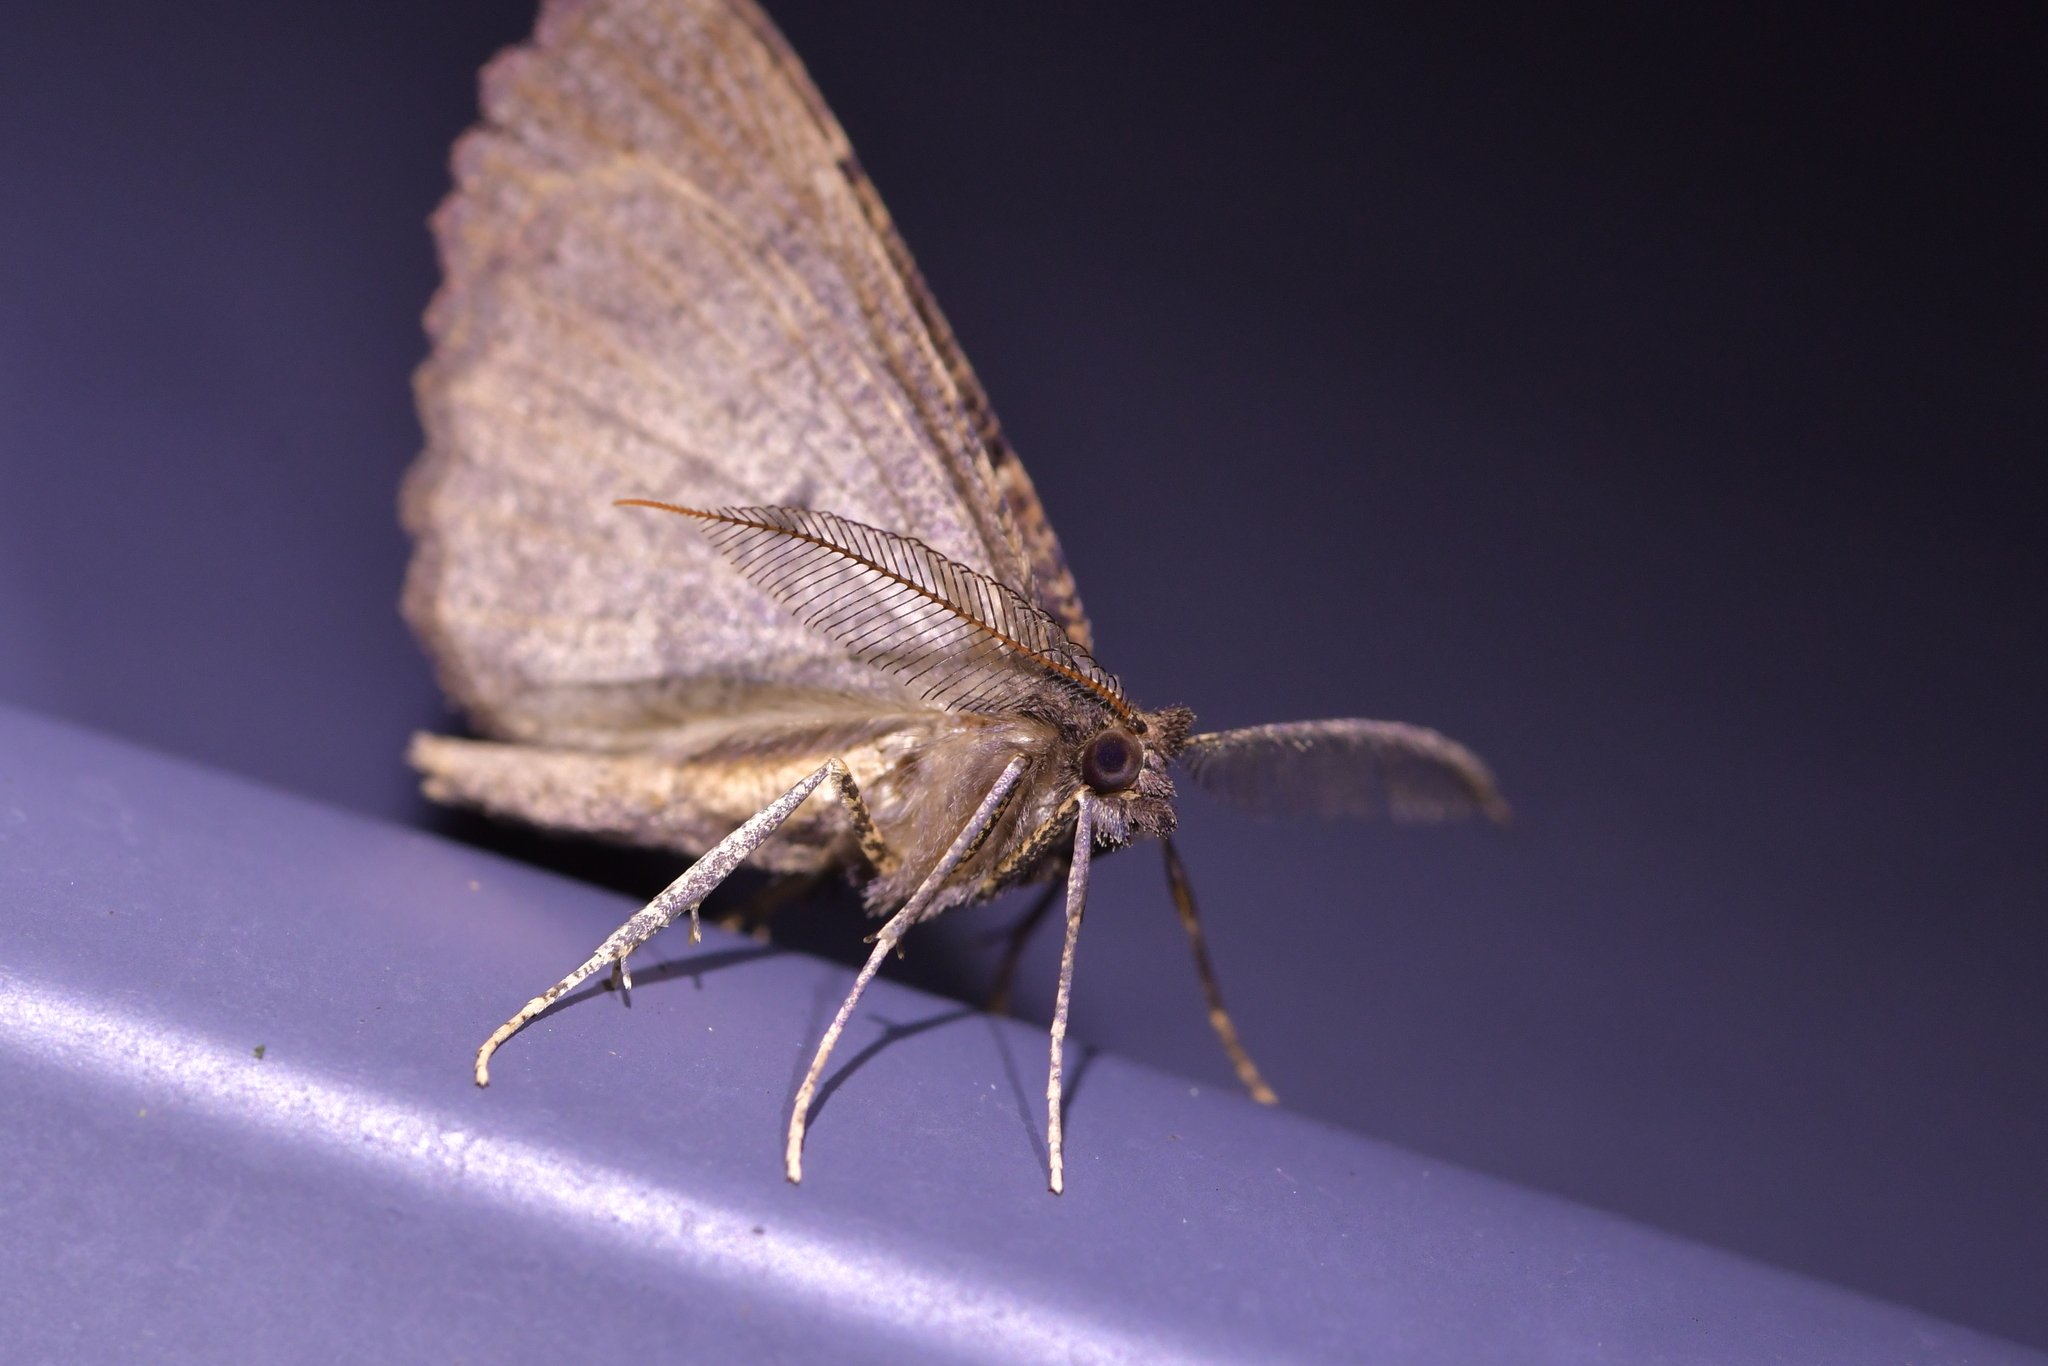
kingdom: Animalia
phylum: Arthropoda
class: Insecta
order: Lepidoptera
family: Geometridae
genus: Cleora
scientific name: Cleora scriptaria
